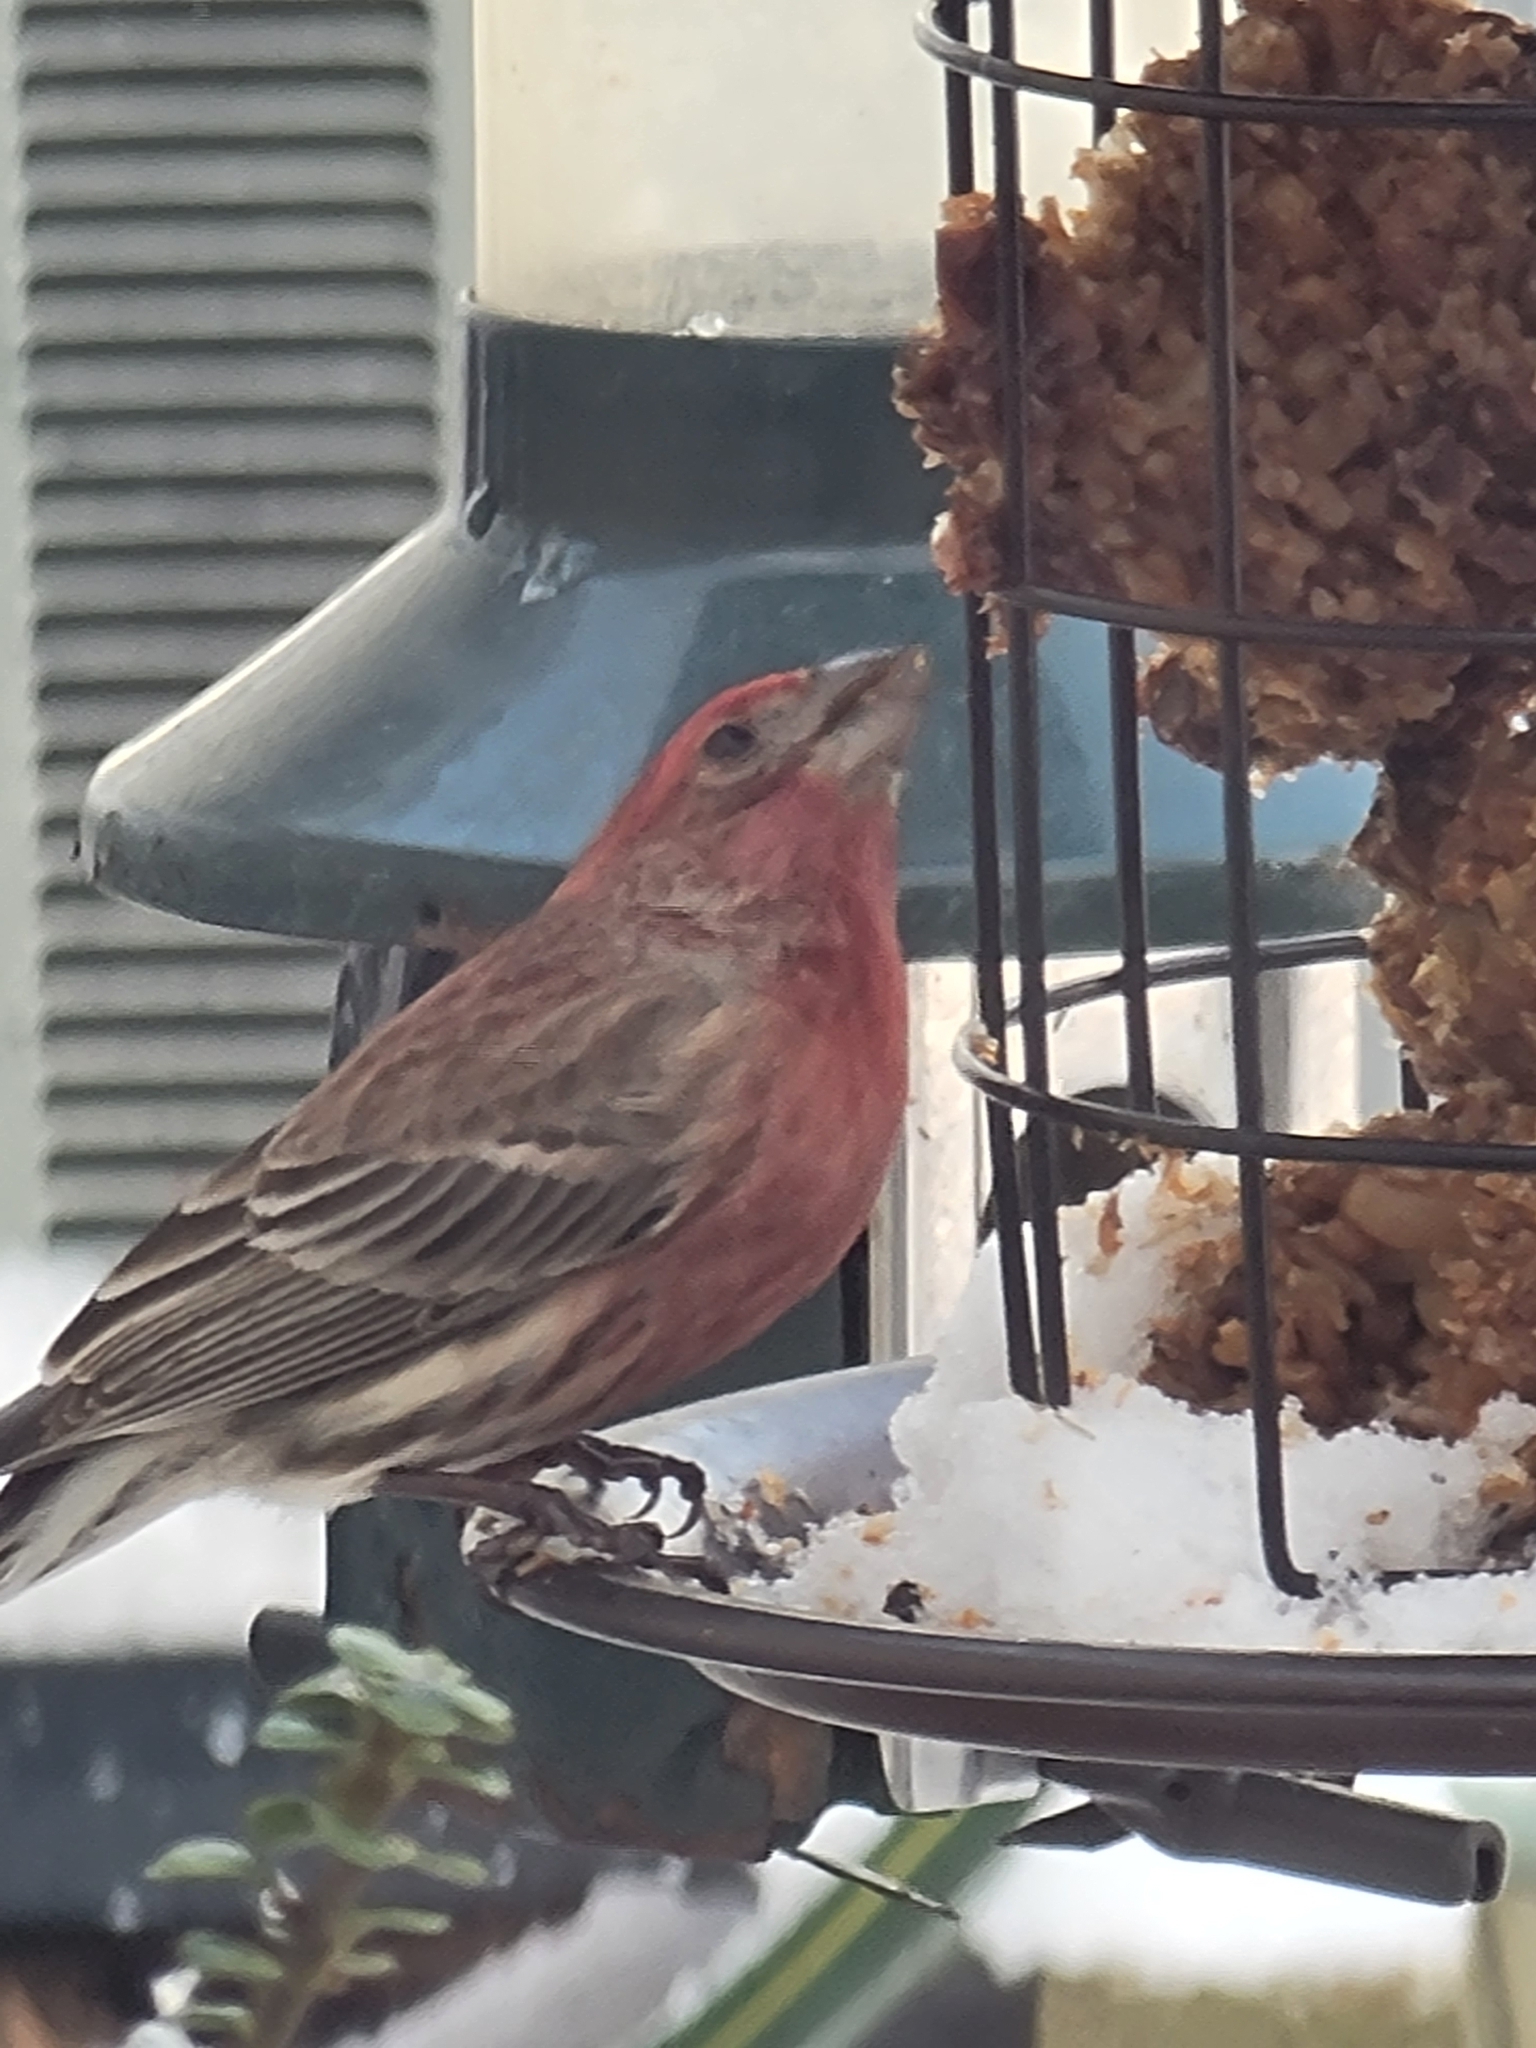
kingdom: Animalia
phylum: Chordata
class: Aves
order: Passeriformes
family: Fringillidae
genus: Haemorhous
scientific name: Haemorhous mexicanus
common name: House finch
